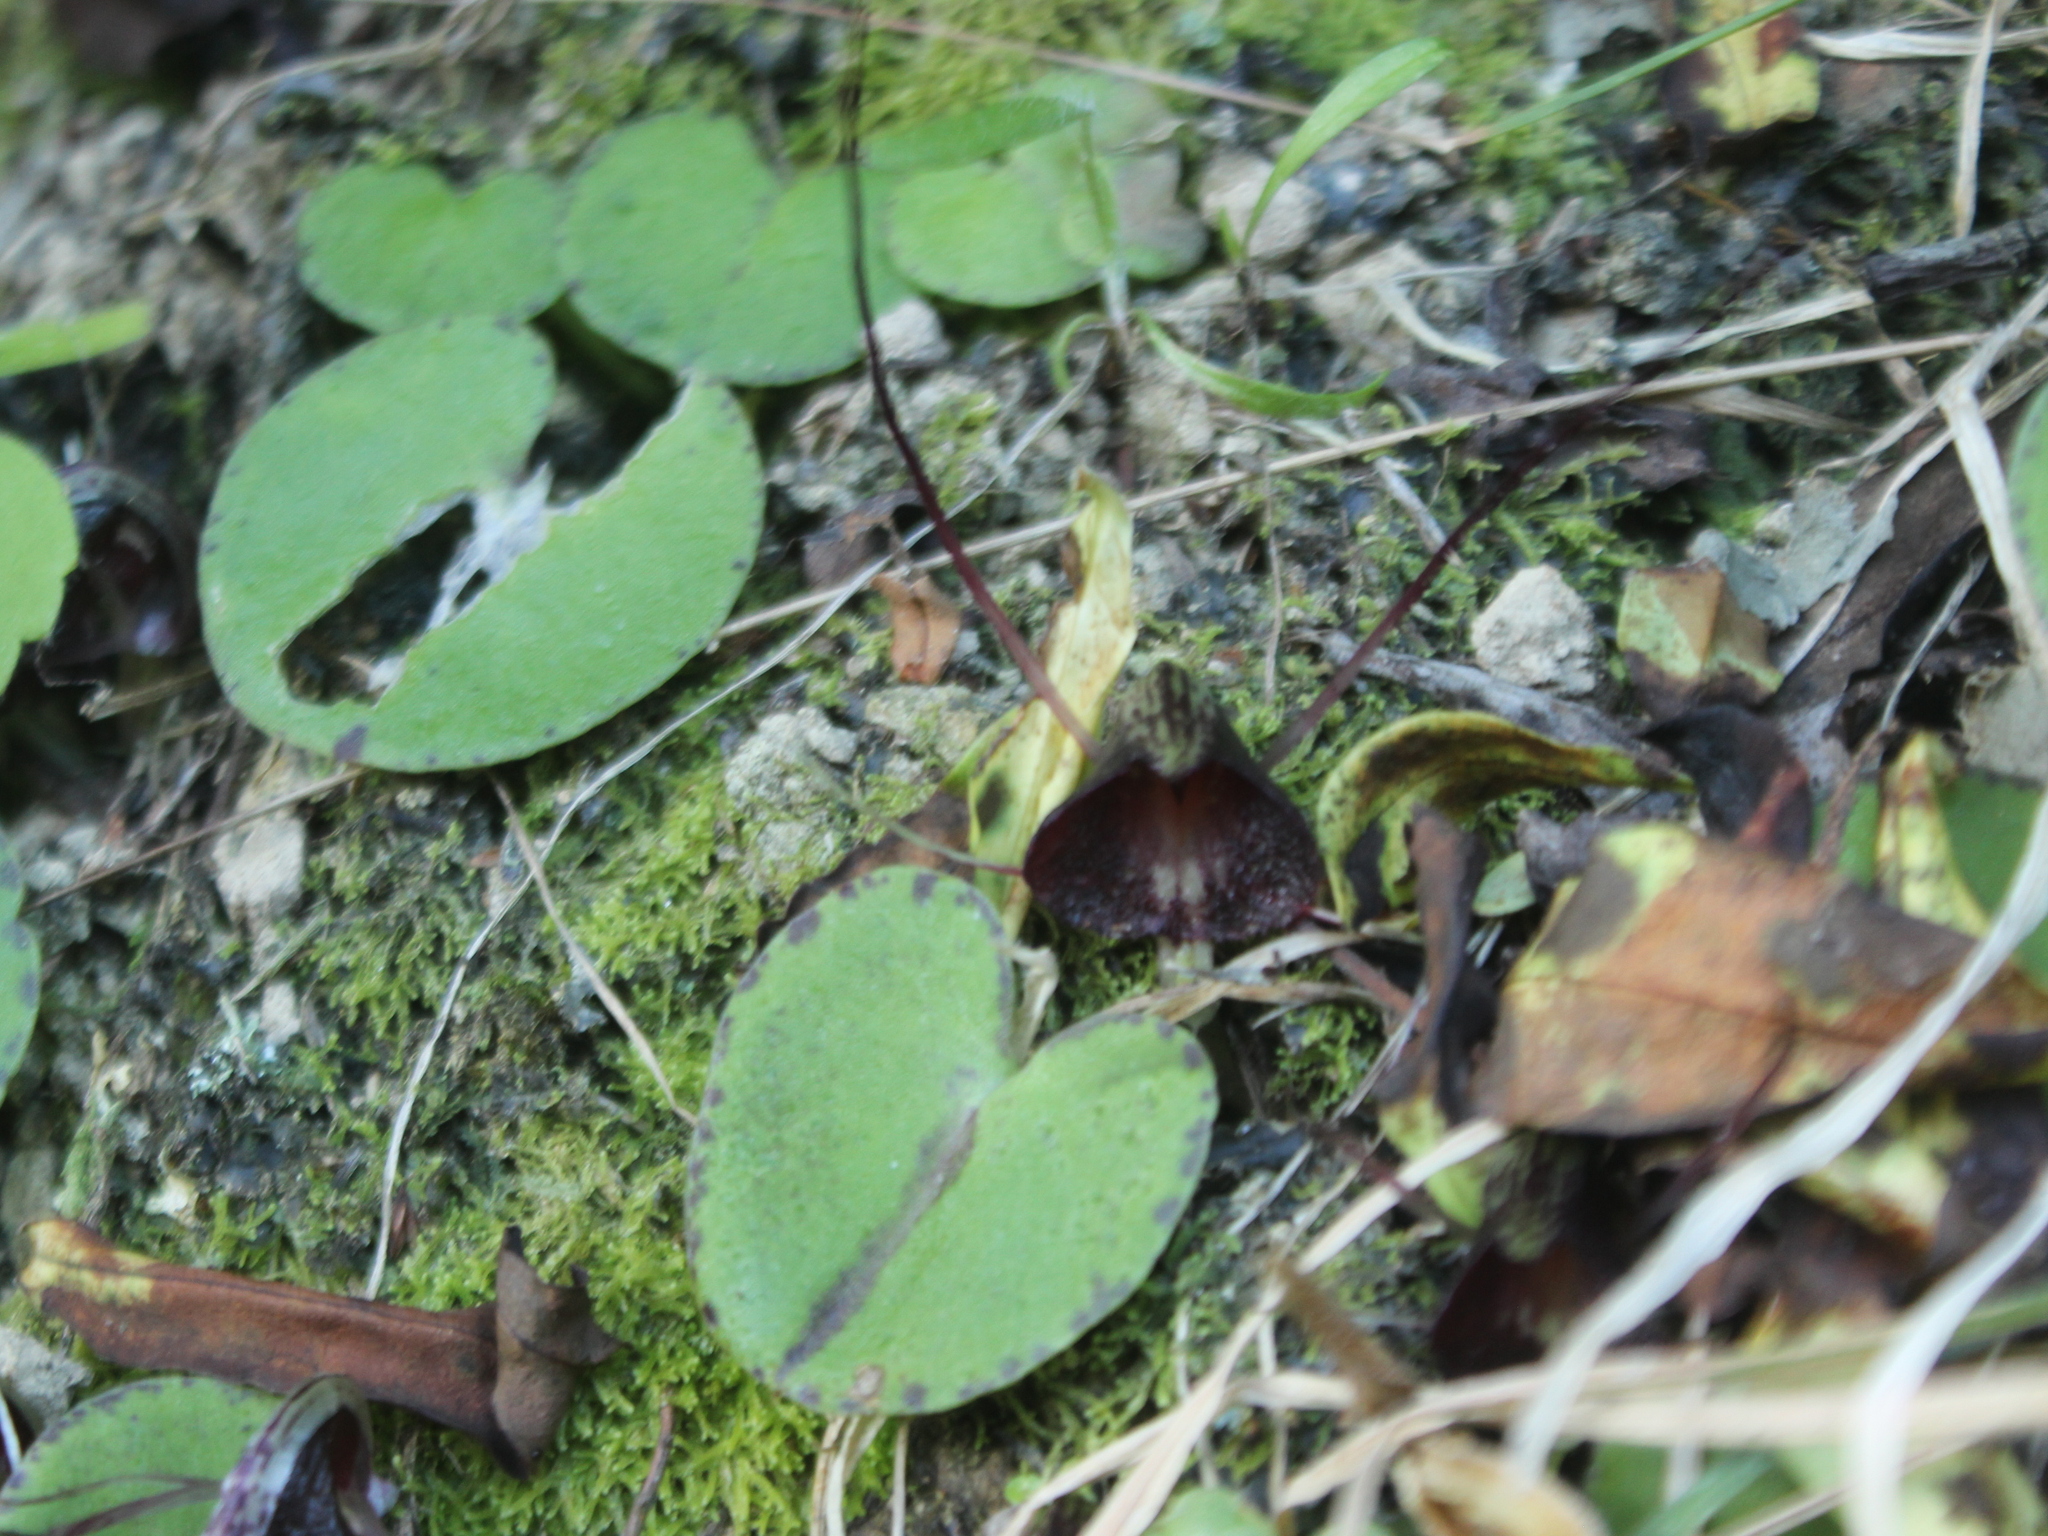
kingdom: Plantae
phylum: Tracheophyta
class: Liliopsida
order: Asparagales
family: Orchidaceae
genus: Corybas
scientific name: Corybas macranthus
